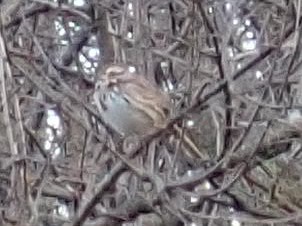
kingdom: Animalia
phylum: Chordata
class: Aves
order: Passeriformes
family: Passerellidae
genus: Melospiza
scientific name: Melospiza melodia
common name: Song sparrow
